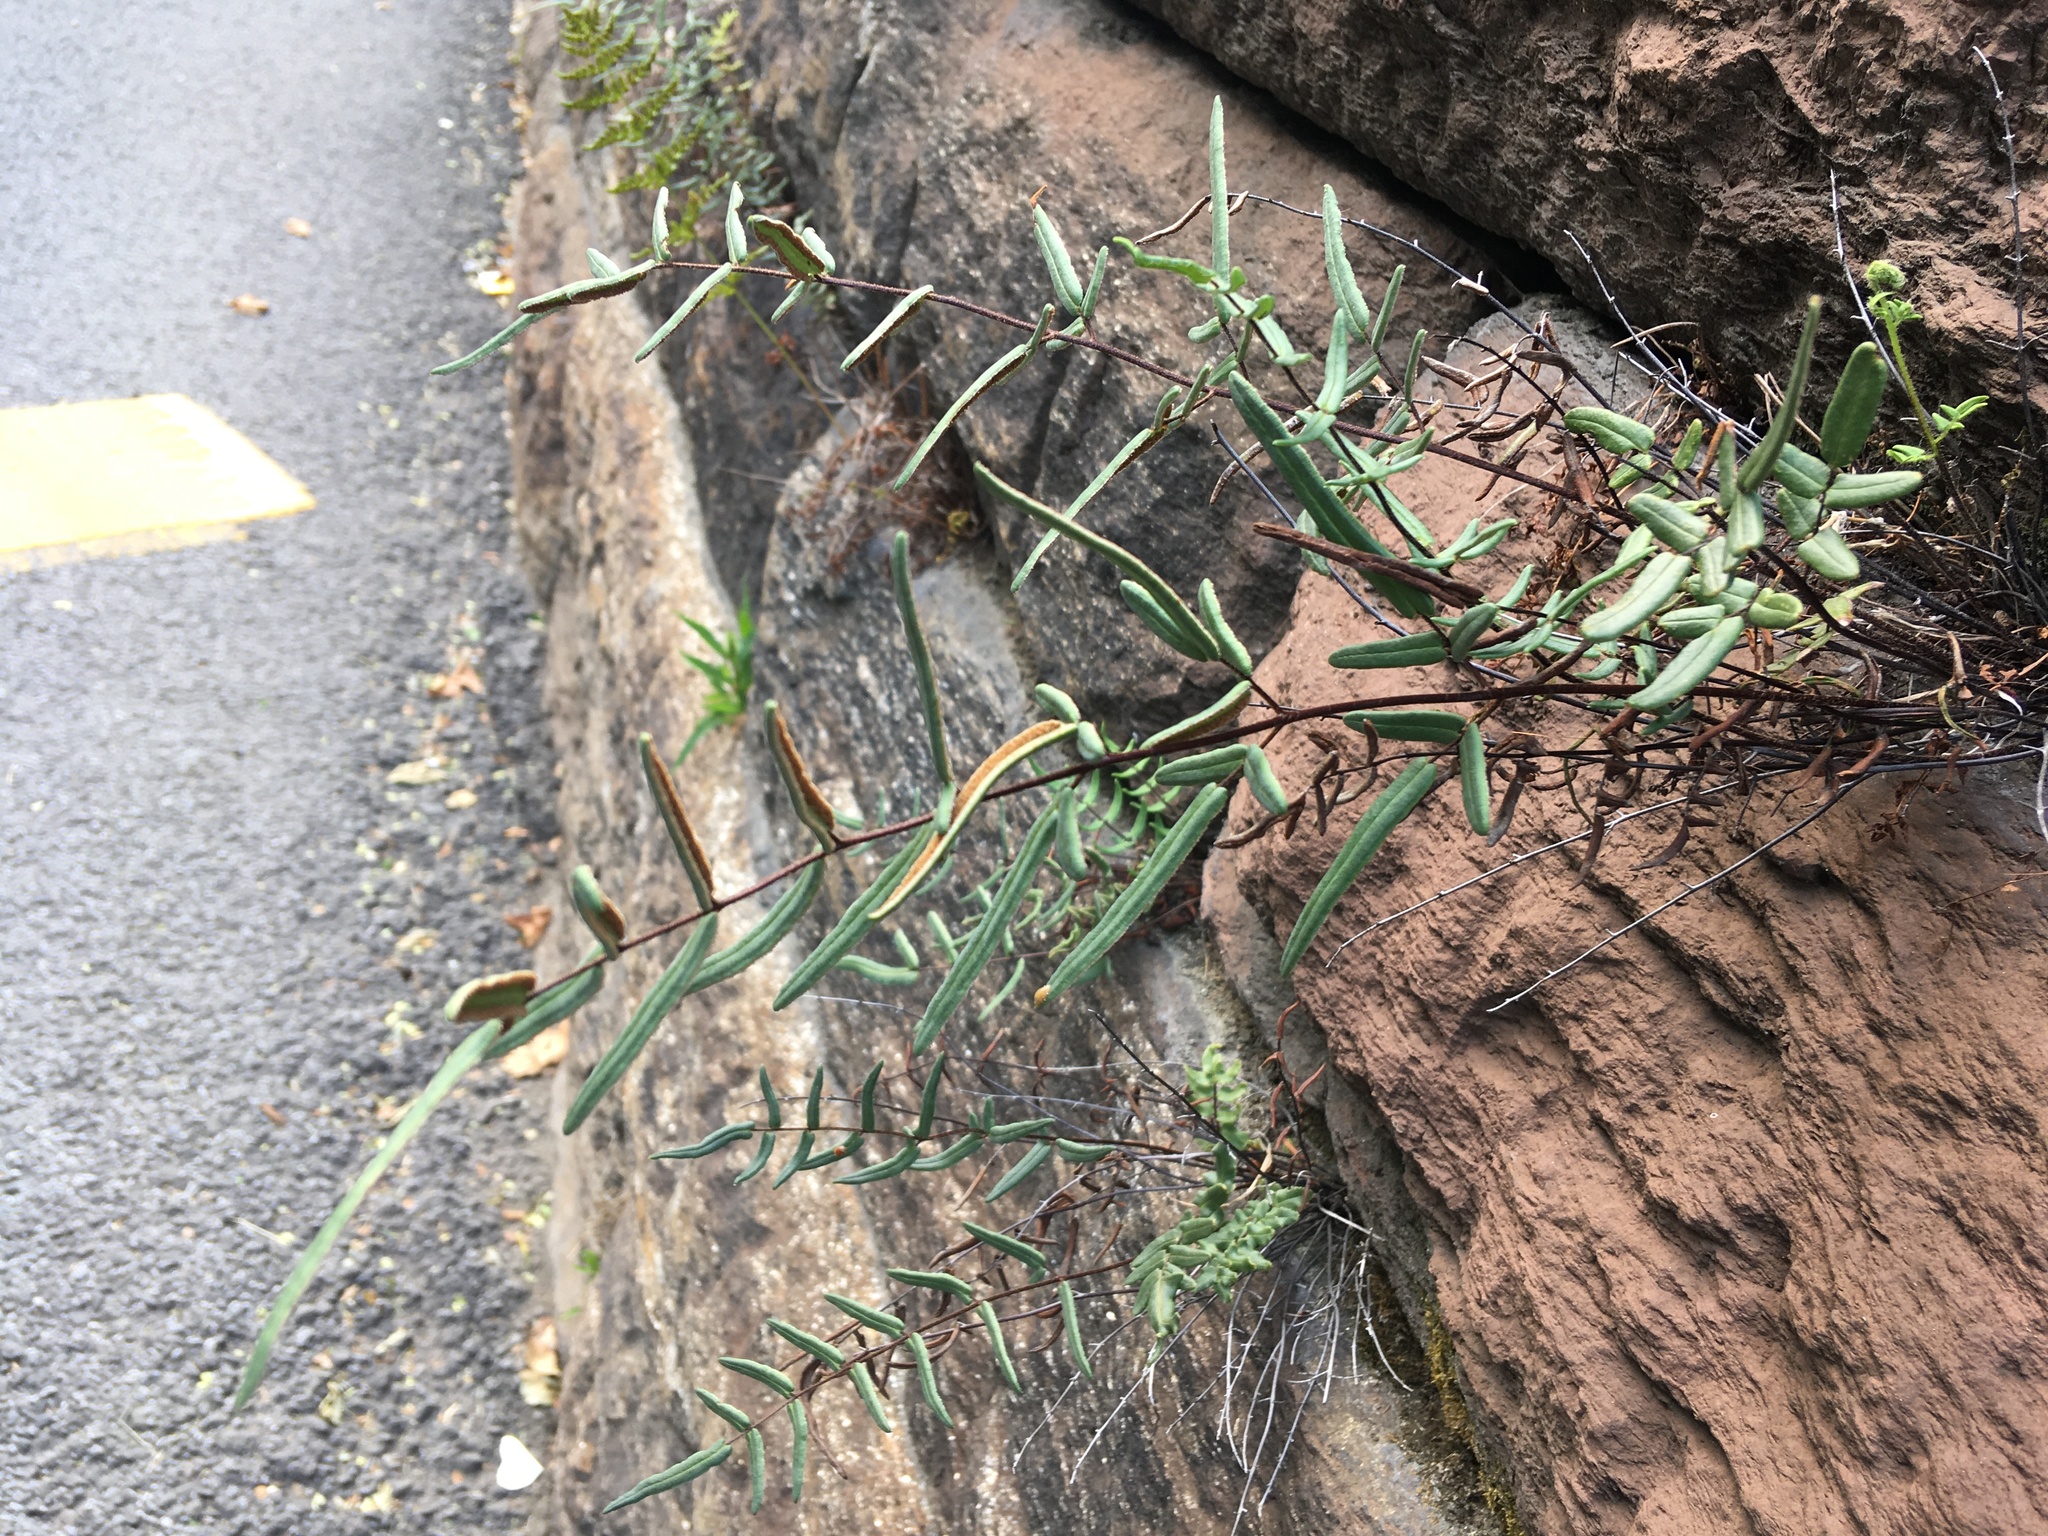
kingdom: Plantae
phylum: Tracheophyta
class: Polypodiopsida
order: Polypodiales
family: Pteridaceae
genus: Pellaea
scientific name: Pellaea atropurpurea
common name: Hairy cliffbrake
